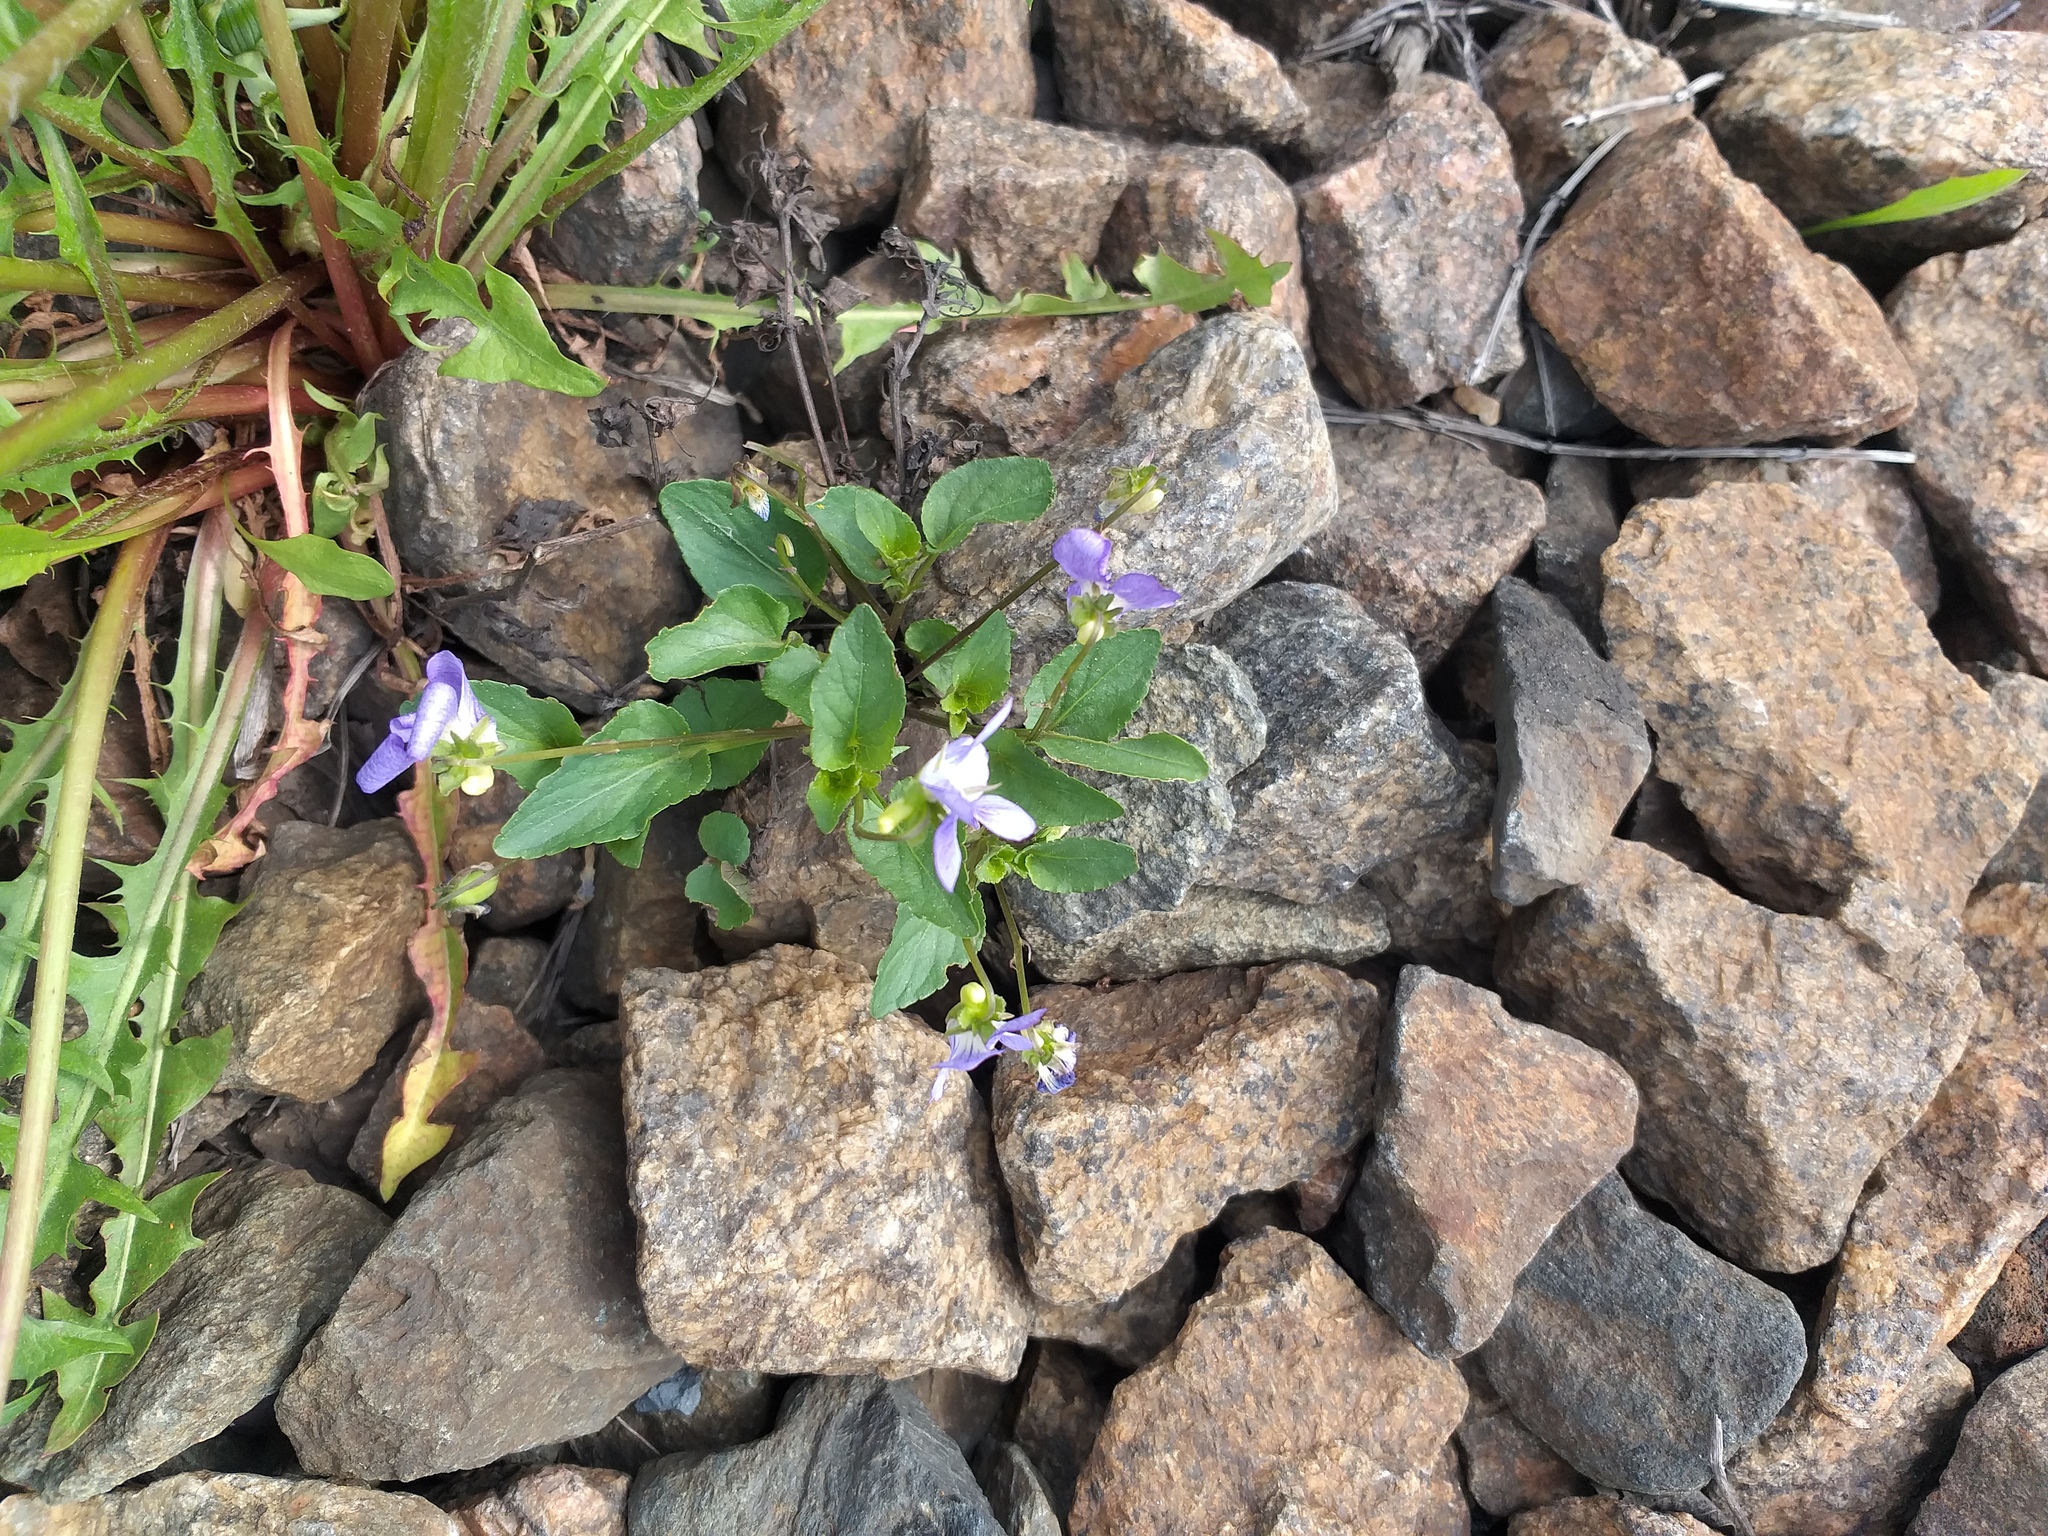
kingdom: Plantae
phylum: Tracheophyta
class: Magnoliopsida
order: Malpighiales
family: Violaceae
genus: Viola
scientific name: Viola canina
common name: Heath dog-violet
